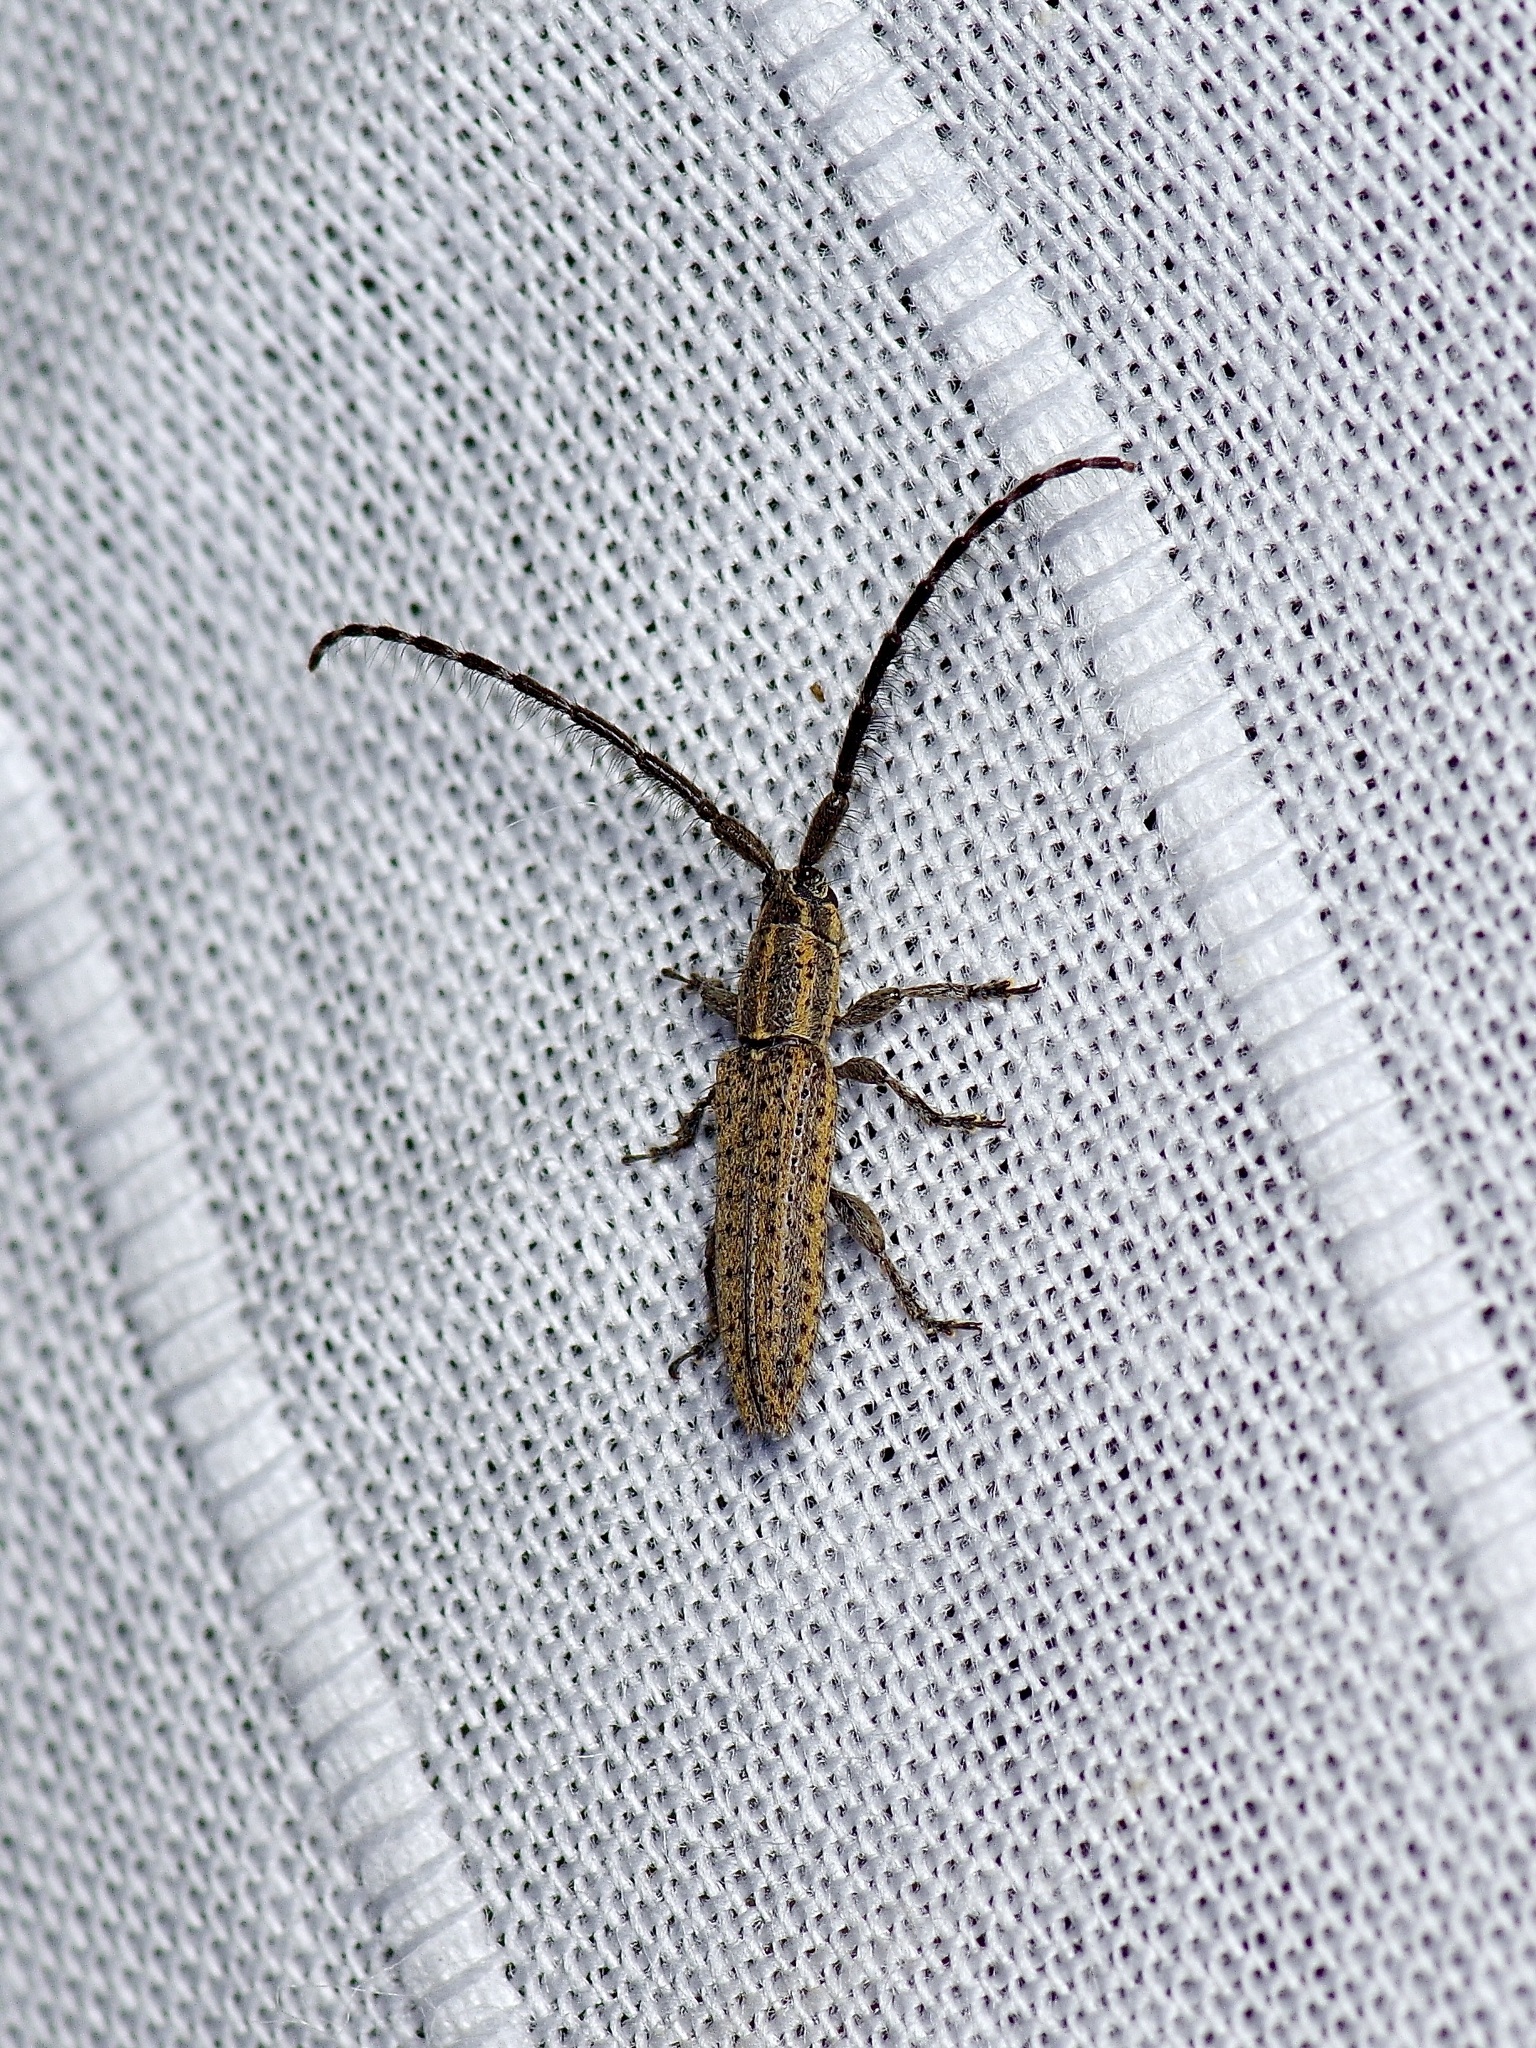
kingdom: Animalia
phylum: Arthropoda
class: Insecta
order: Coleoptera
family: Cerambycidae
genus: Dorcasta
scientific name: Dorcasta cinerea
